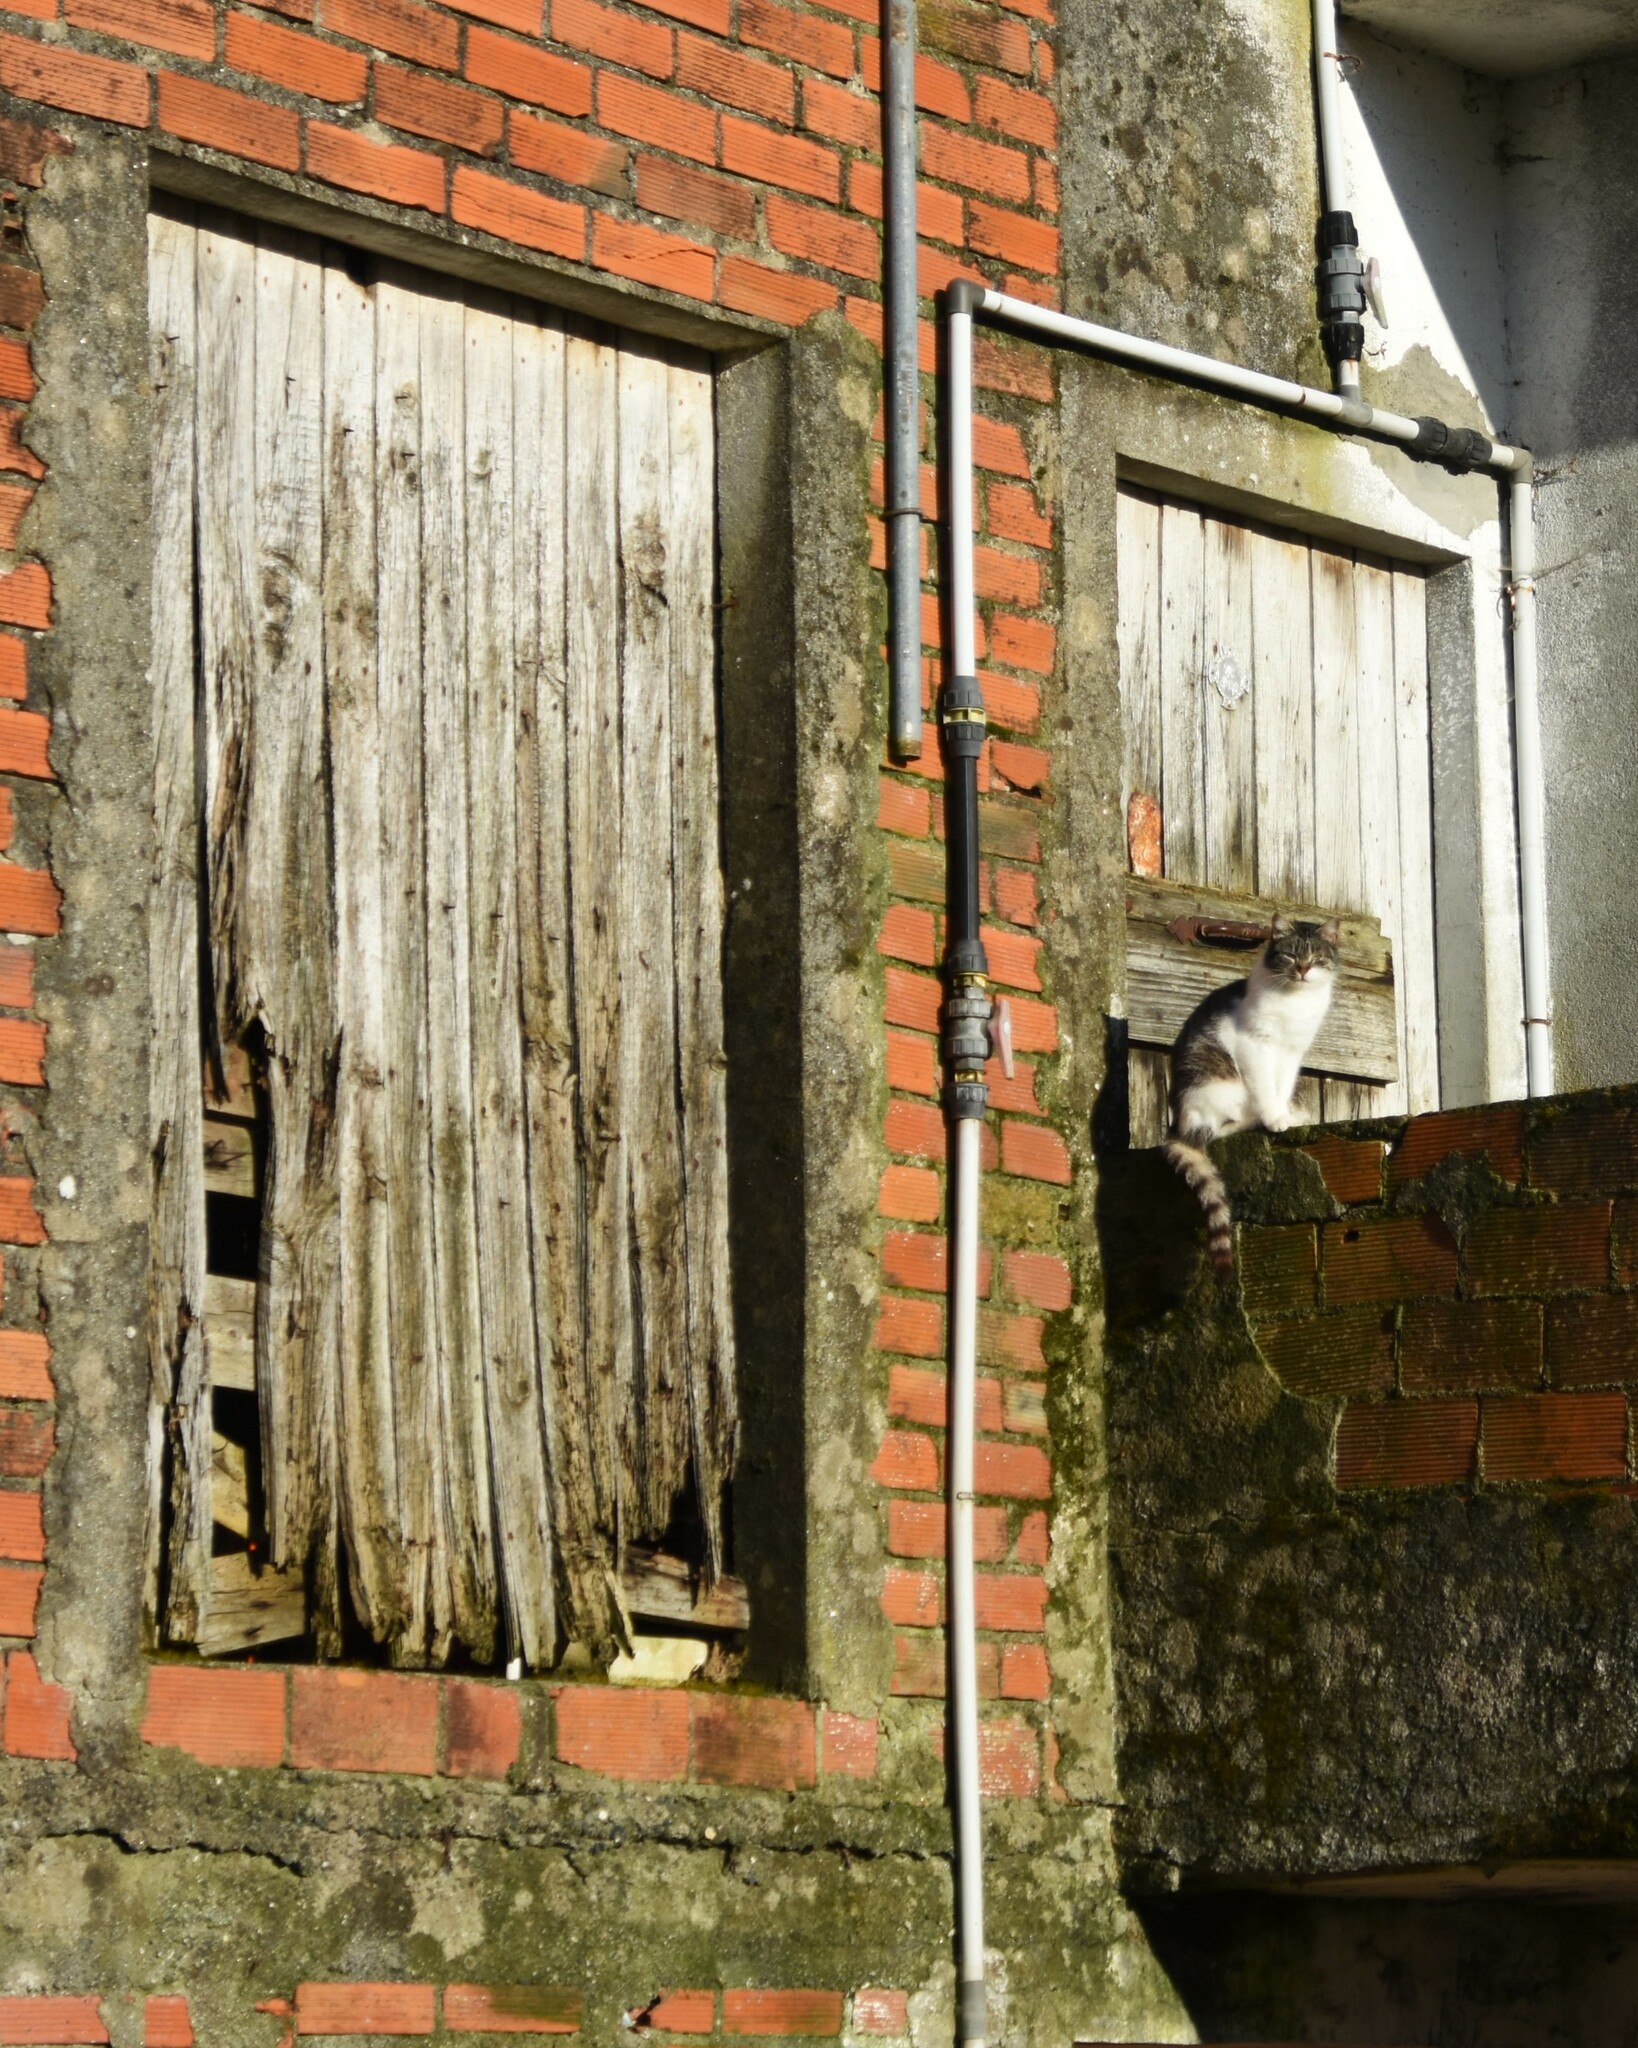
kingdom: Animalia
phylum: Chordata
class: Mammalia
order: Carnivora
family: Felidae
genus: Felis
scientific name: Felis catus
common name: Domestic cat
